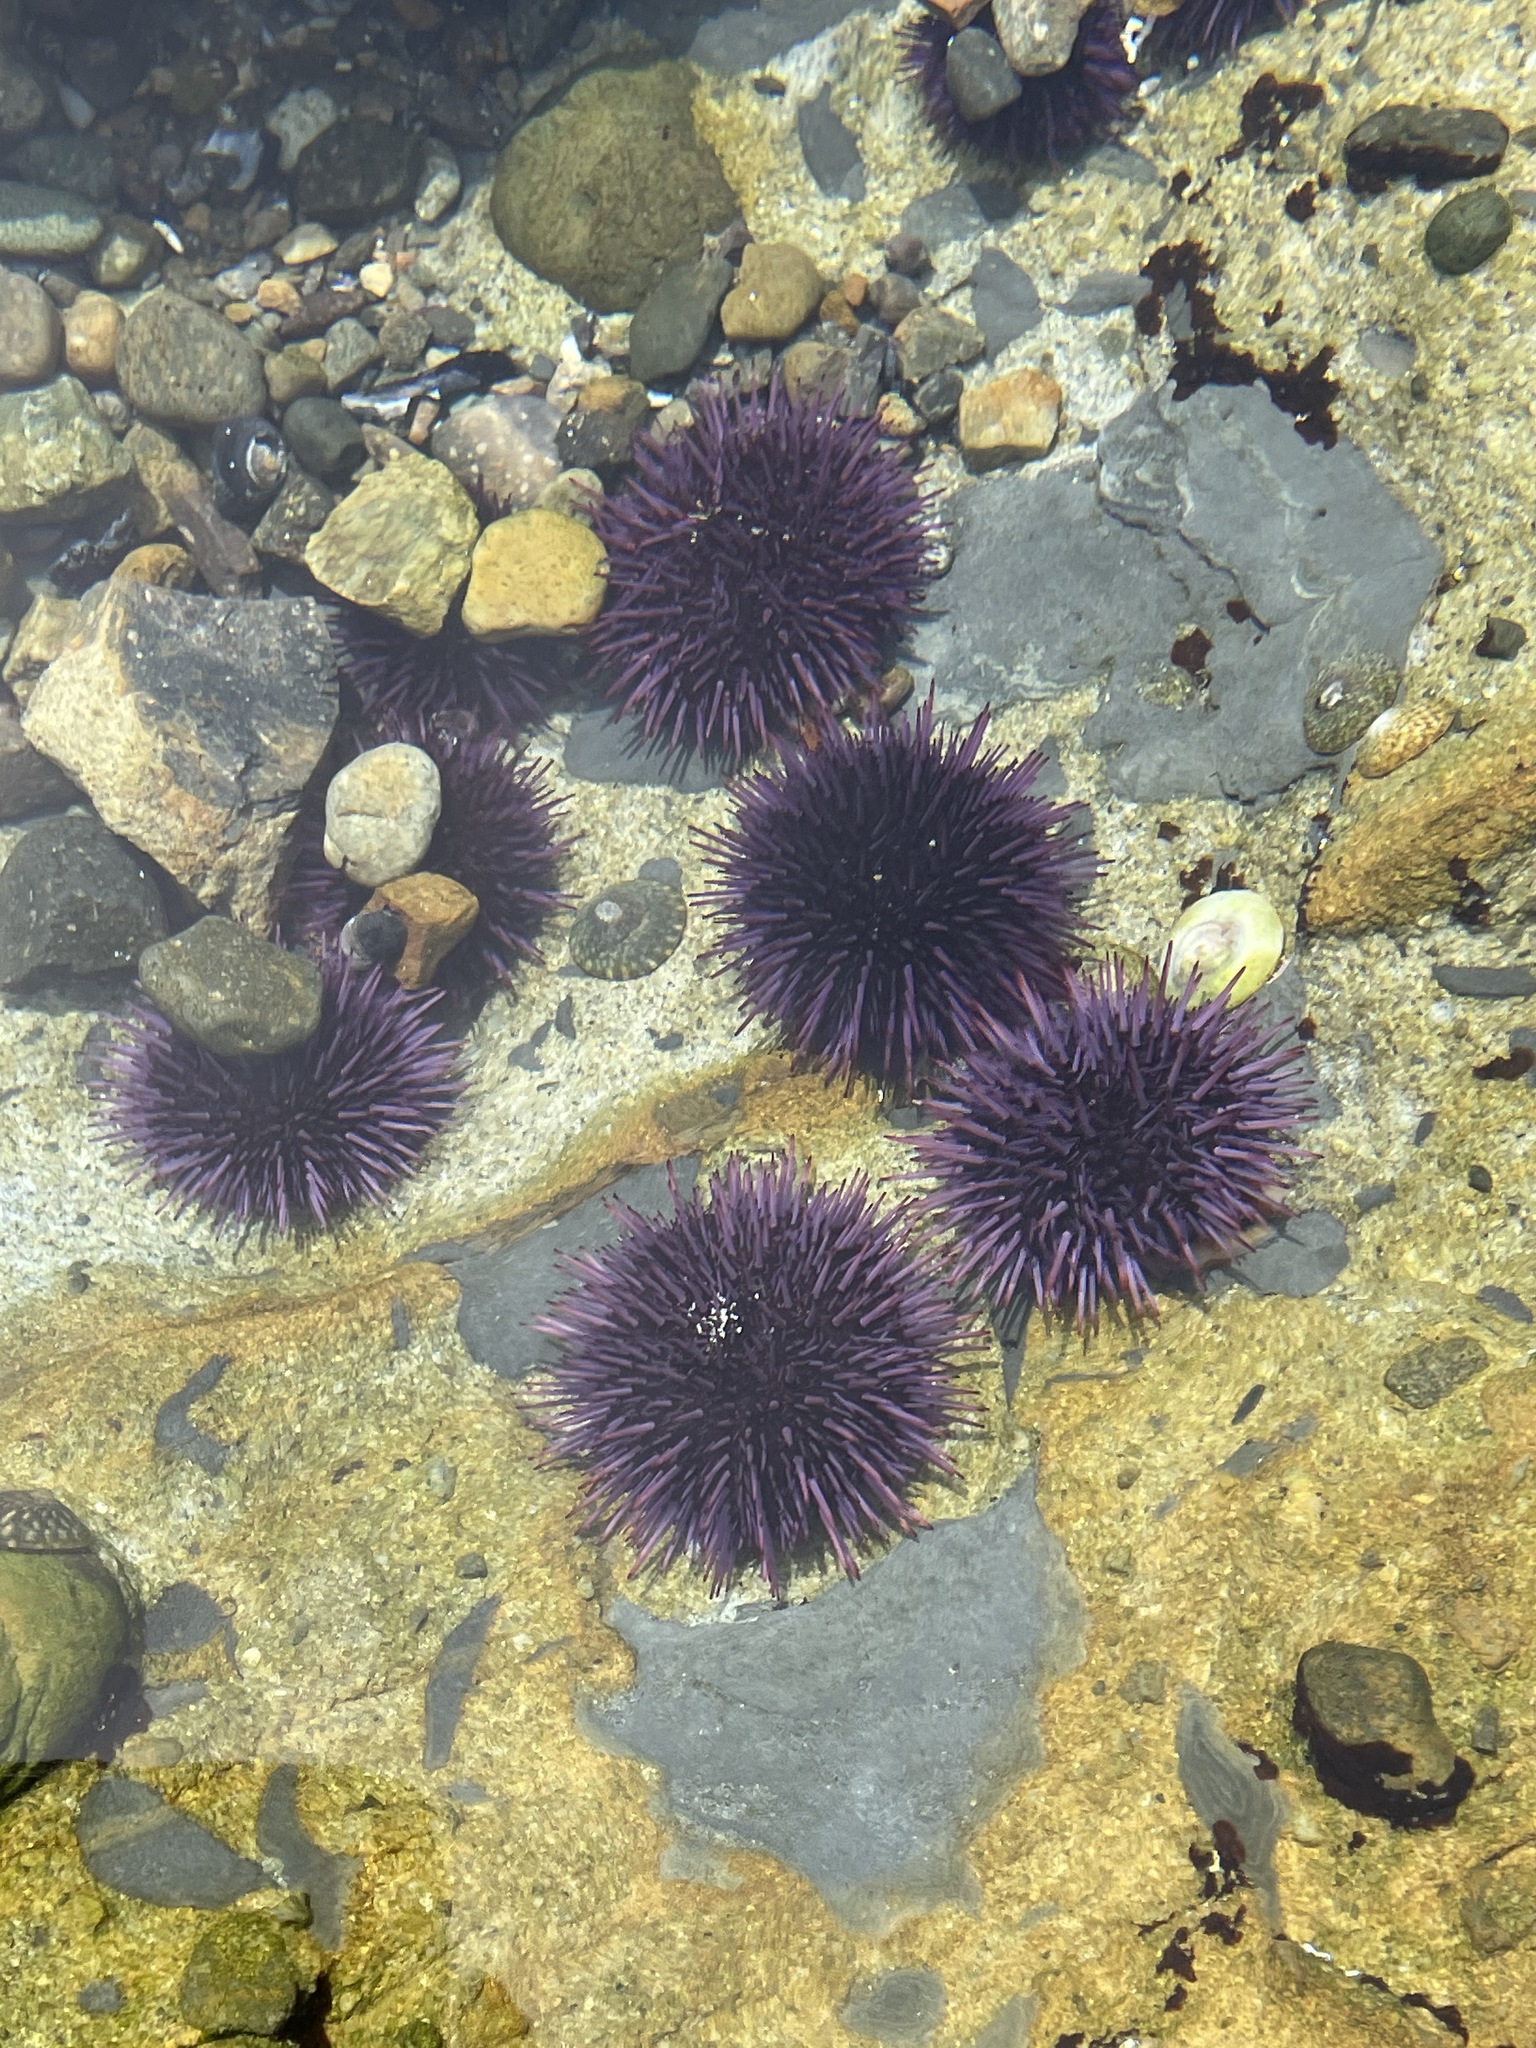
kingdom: Animalia
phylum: Echinodermata
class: Echinoidea
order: Camarodonta
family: Strongylocentrotidae
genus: Strongylocentrotus
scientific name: Strongylocentrotus purpuratus
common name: Purple sea urchin
